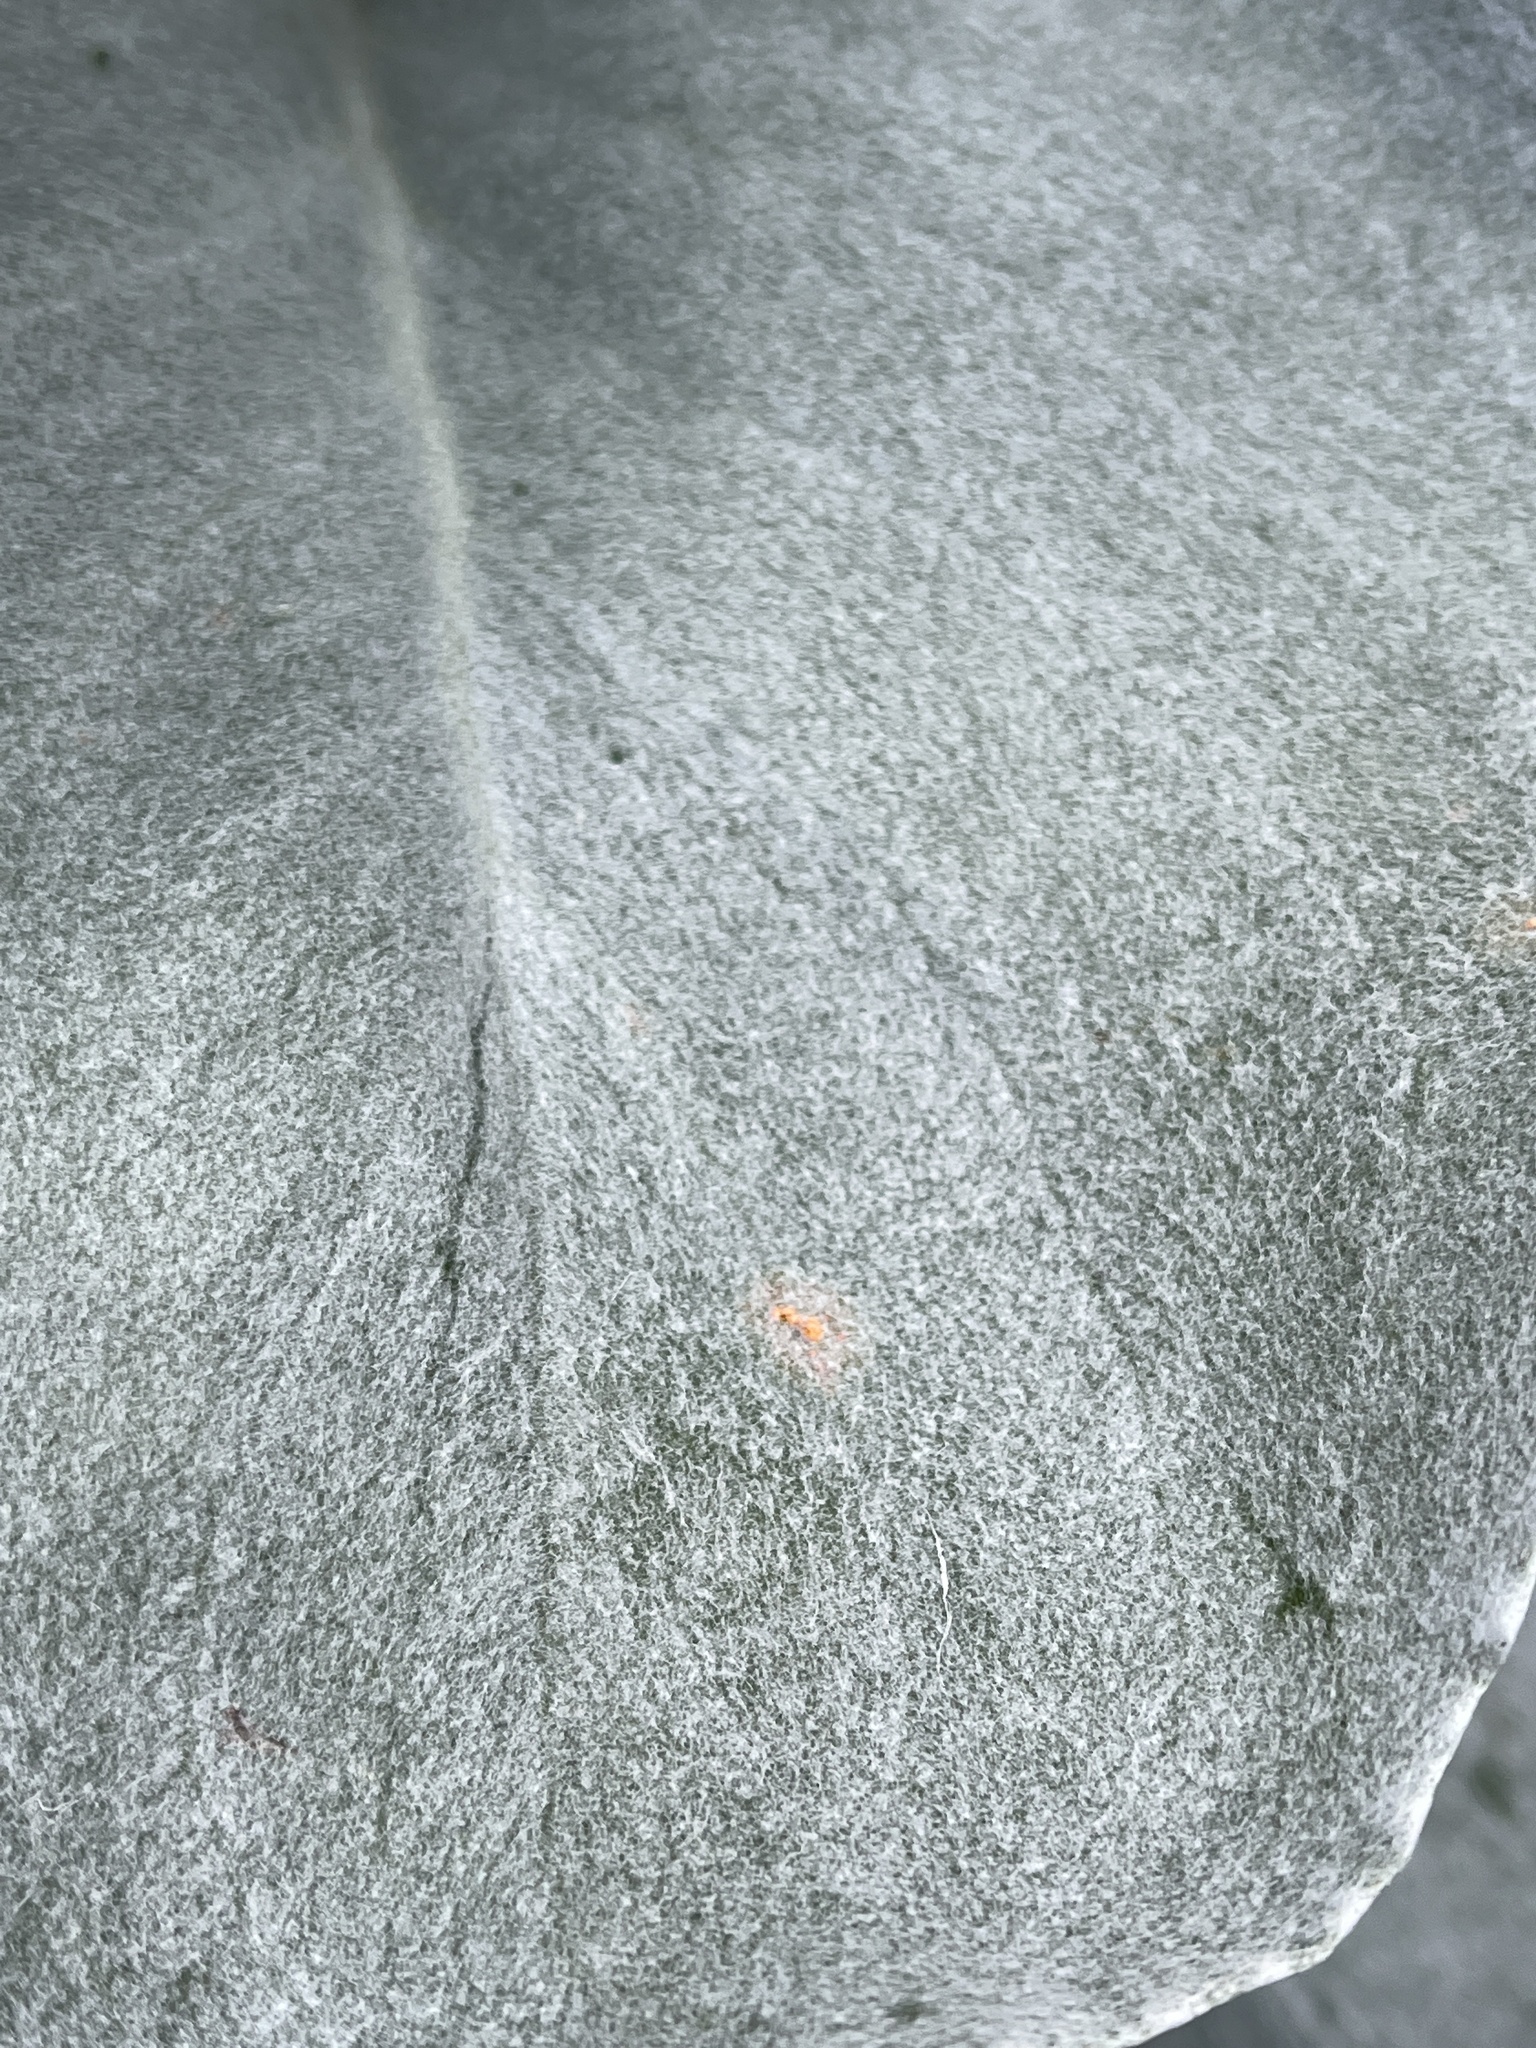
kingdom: Fungi
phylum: Basidiomycota
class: Pucciniomycetes
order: Pucciniales
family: Coleosporiaceae
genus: Coleosporium
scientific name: Coleosporium senecionis
